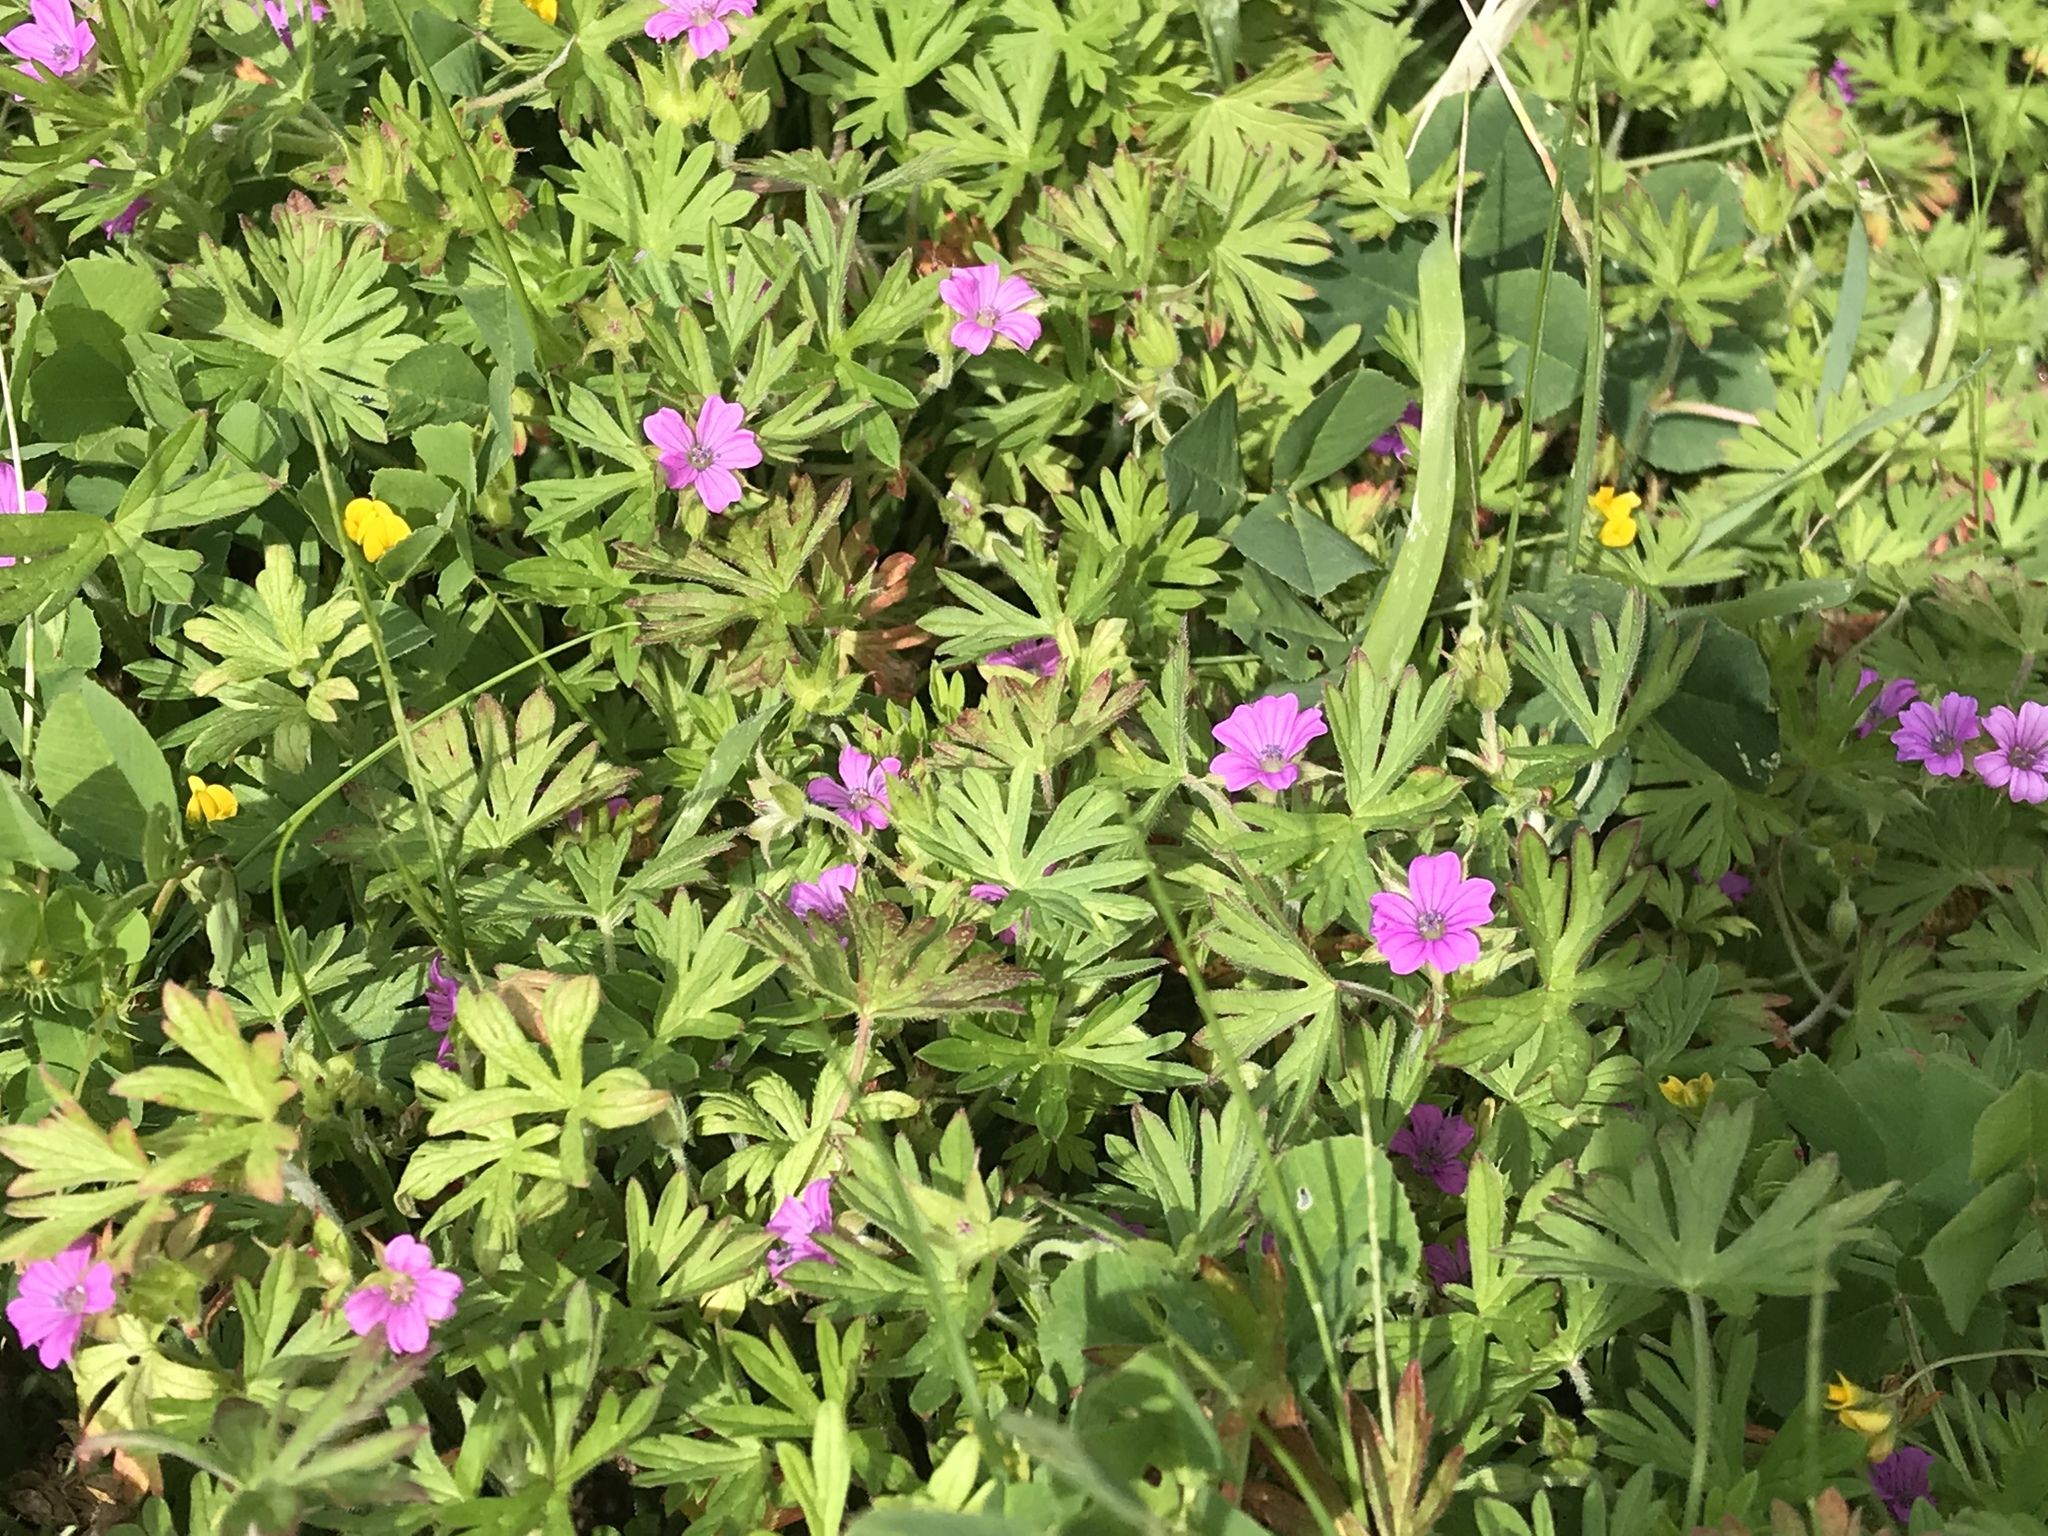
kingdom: Plantae
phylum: Tracheophyta
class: Magnoliopsida
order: Geraniales
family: Geraniaceae
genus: Geranium
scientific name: Geranium dissectum
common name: Cut-leaved crane's-bill
